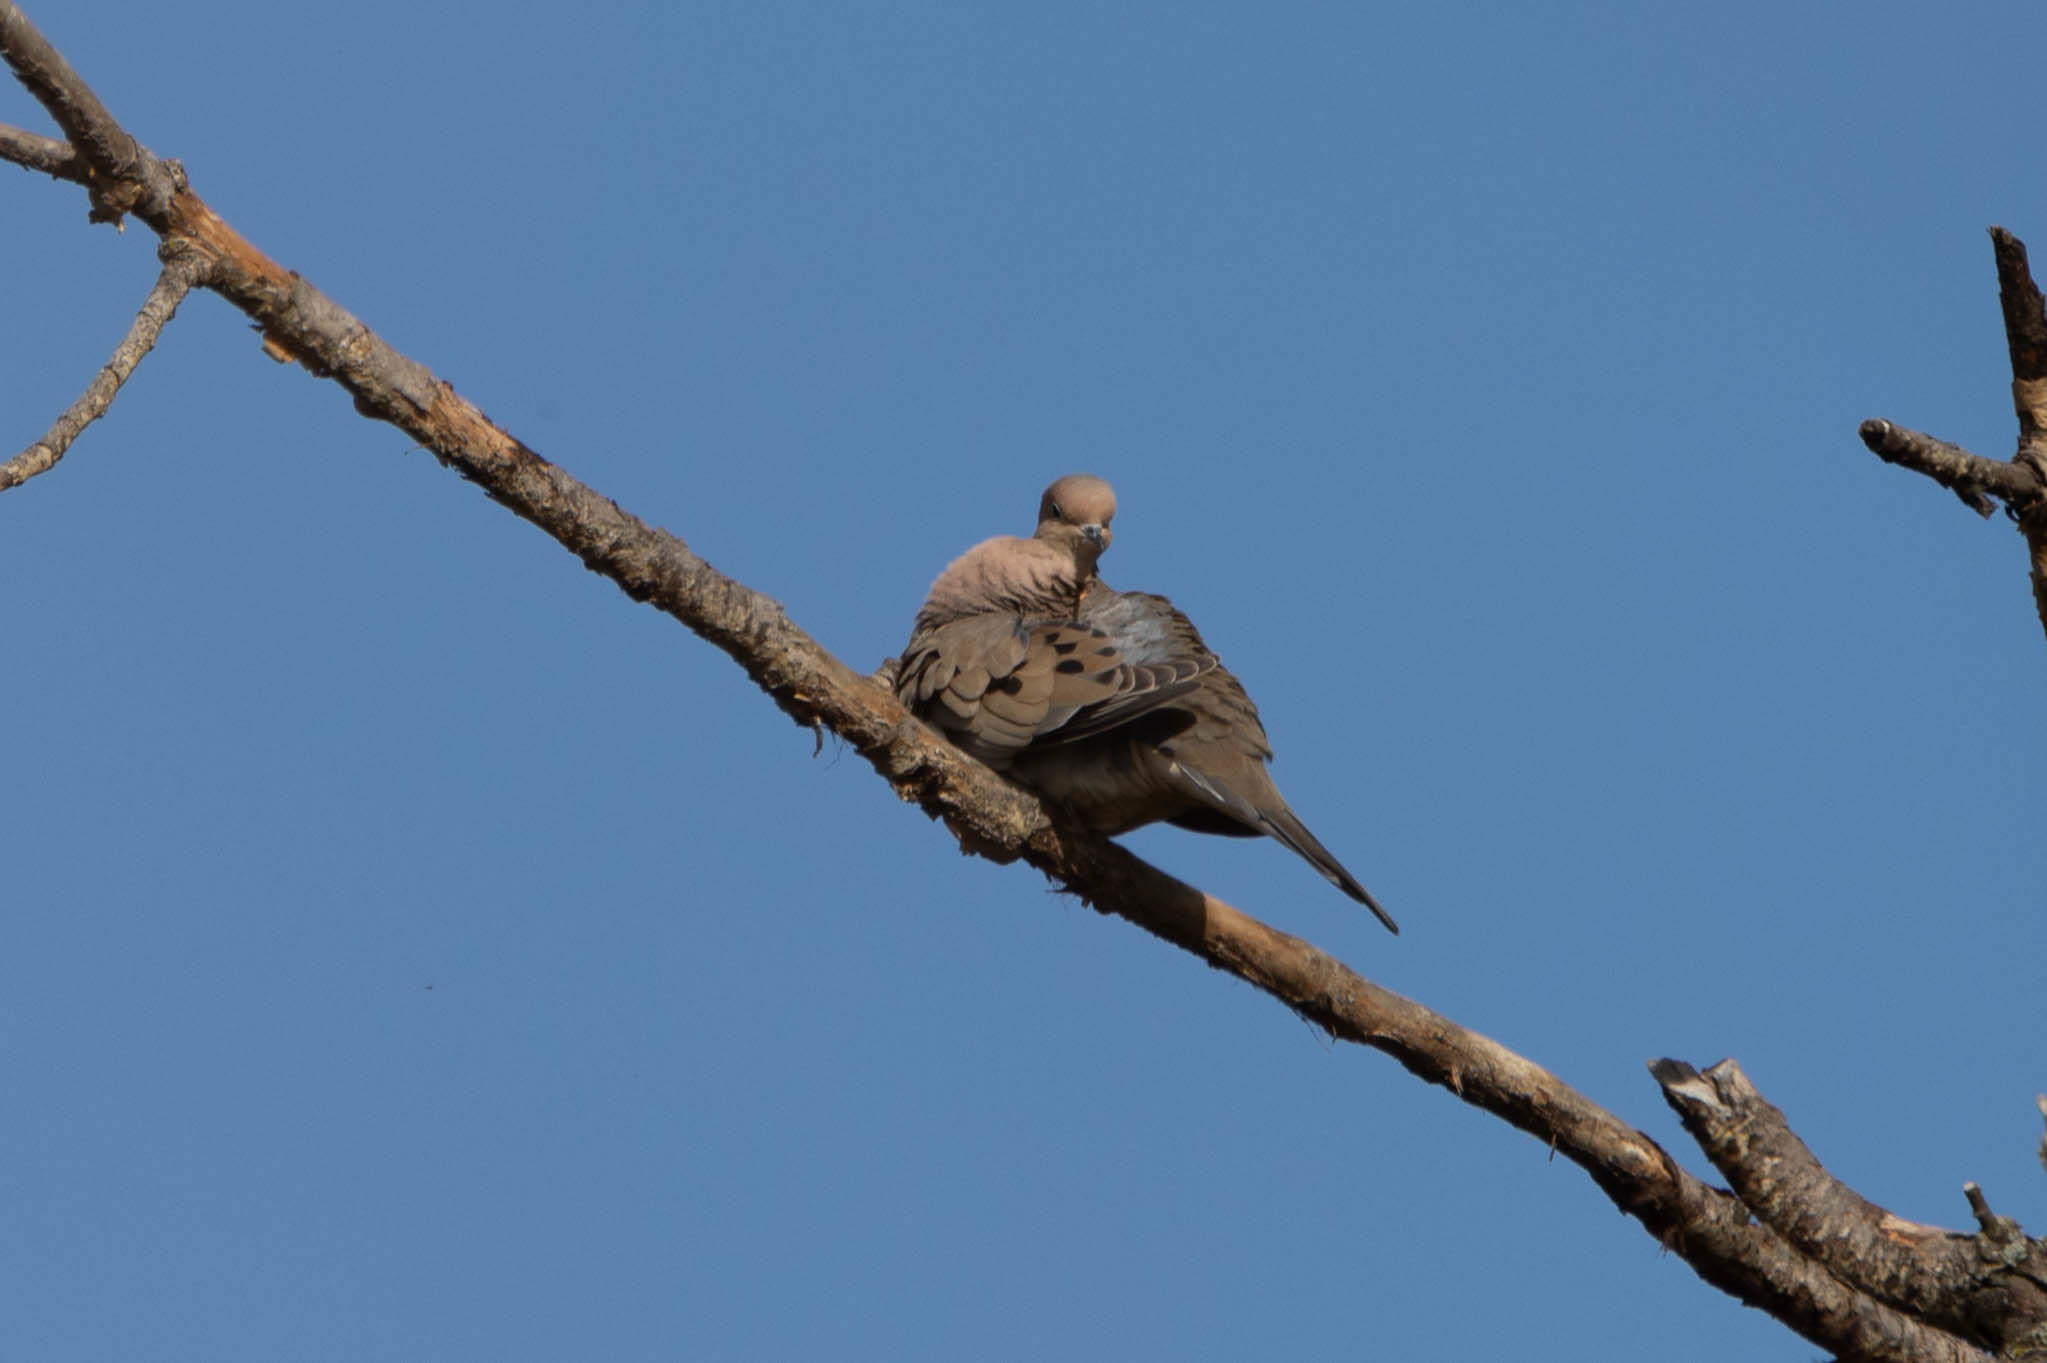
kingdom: Animalia
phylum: Chordata
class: Aves
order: Columbiformes
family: Columbidae
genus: Zenaida
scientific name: Zenaida macroura
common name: Mourning dove
